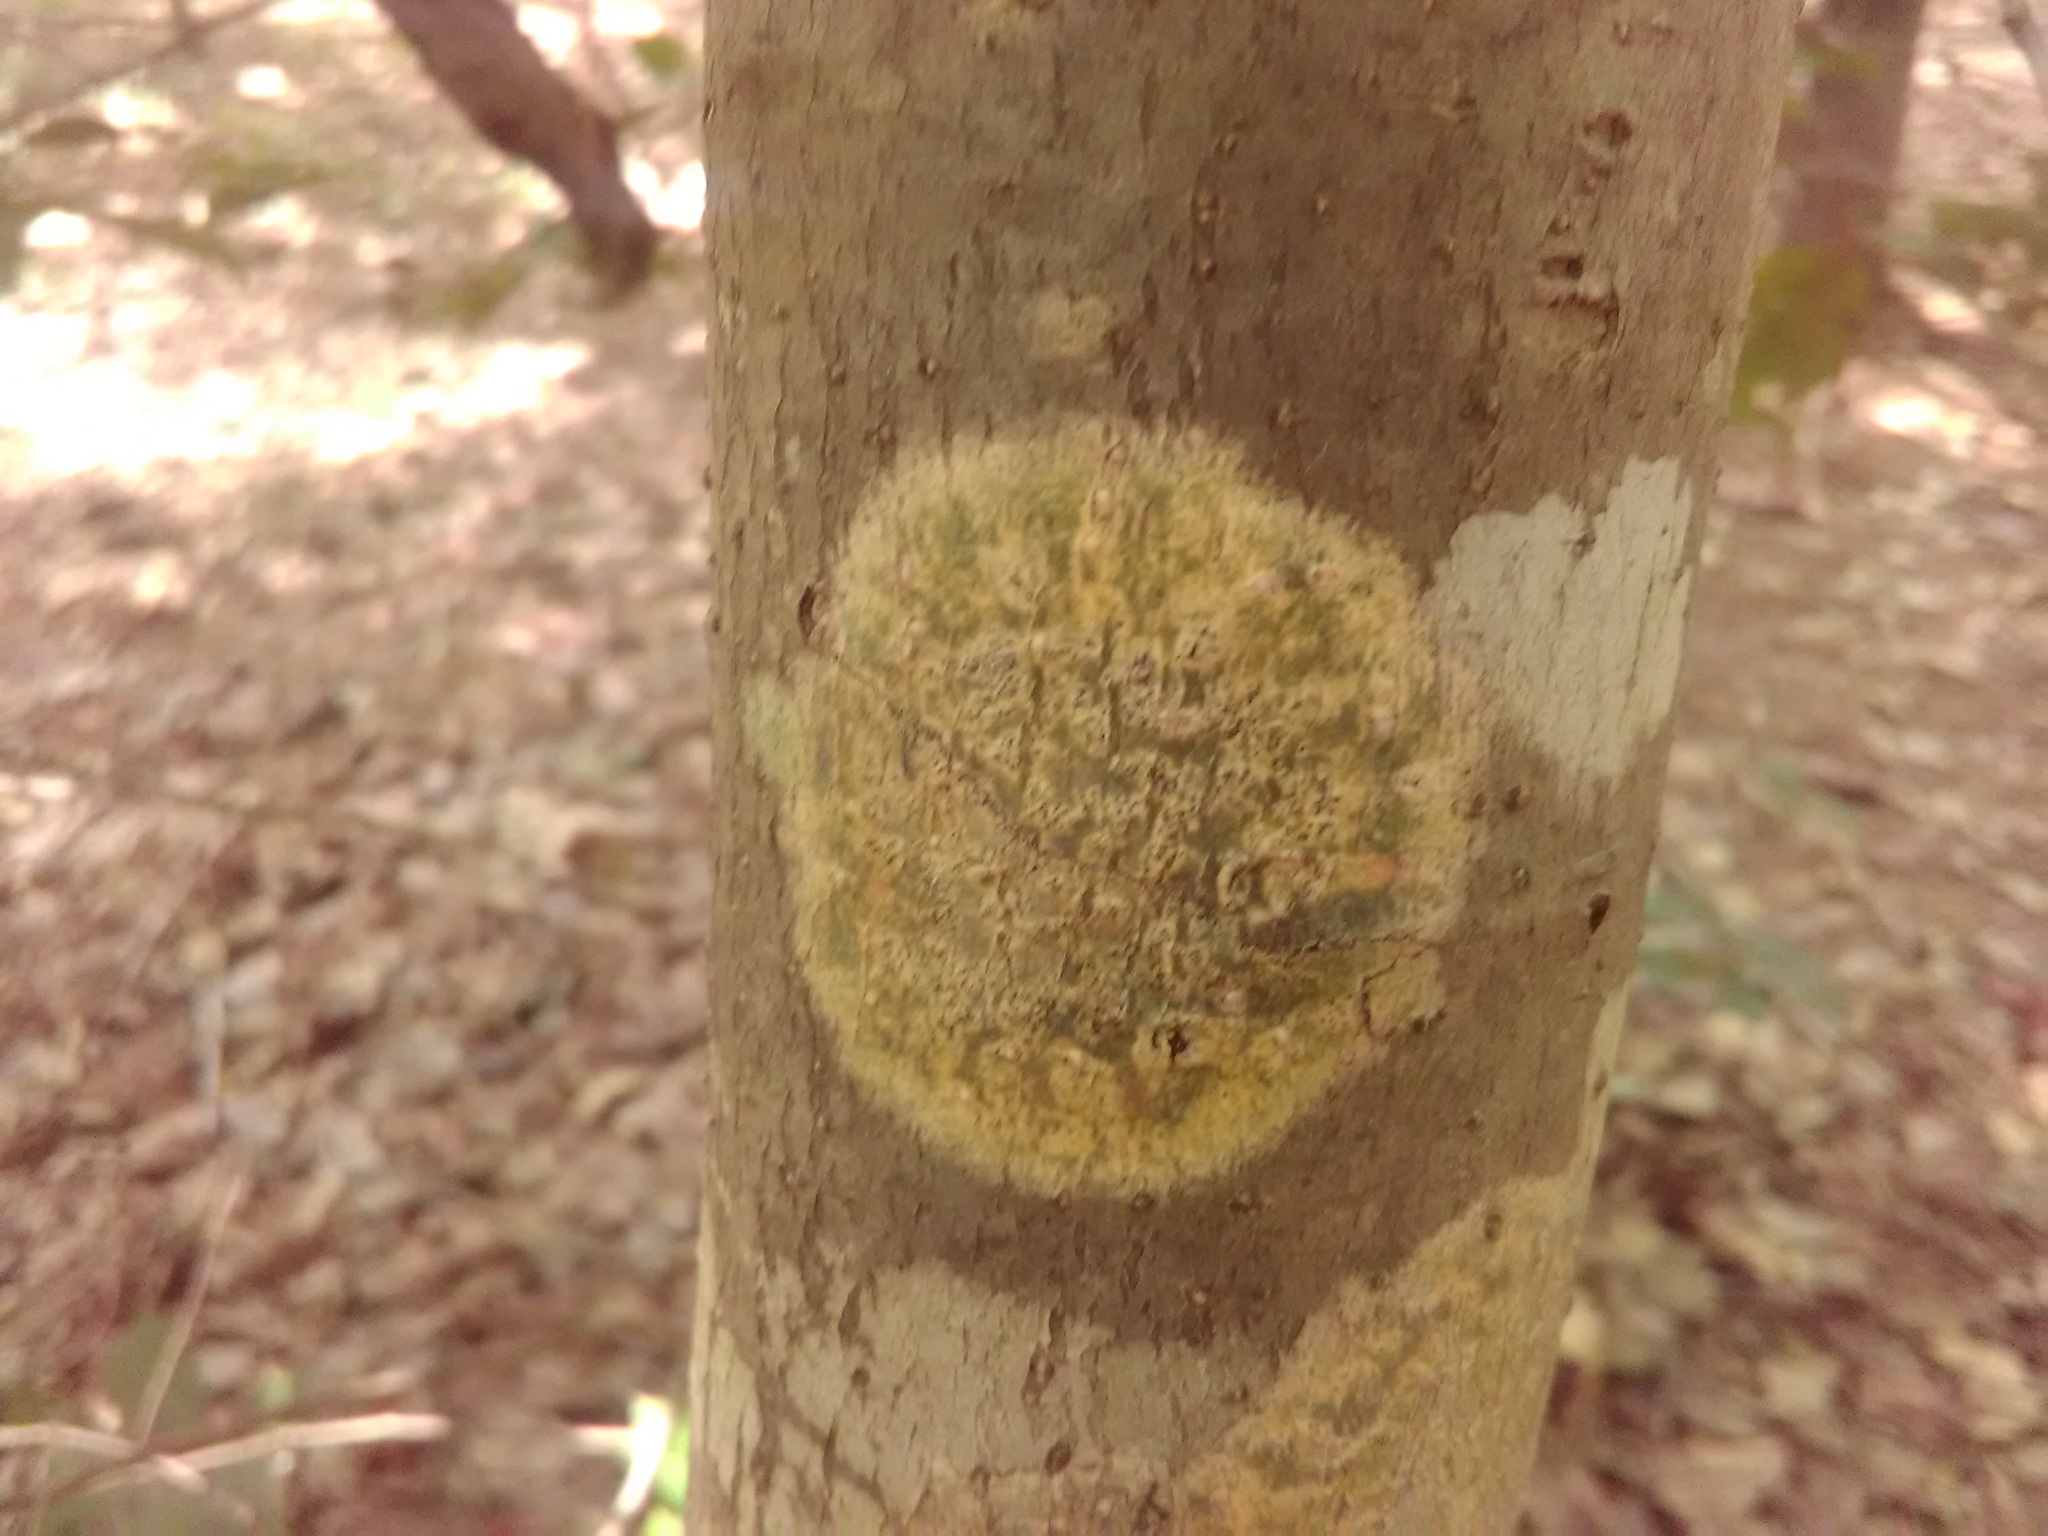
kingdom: Fungi
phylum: Ascomycota
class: Dothideomycetes
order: Trypetheliales
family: Trypetheliaceae
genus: Viridothelium
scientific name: Viridothelium virens
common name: Speckled blister lichen
